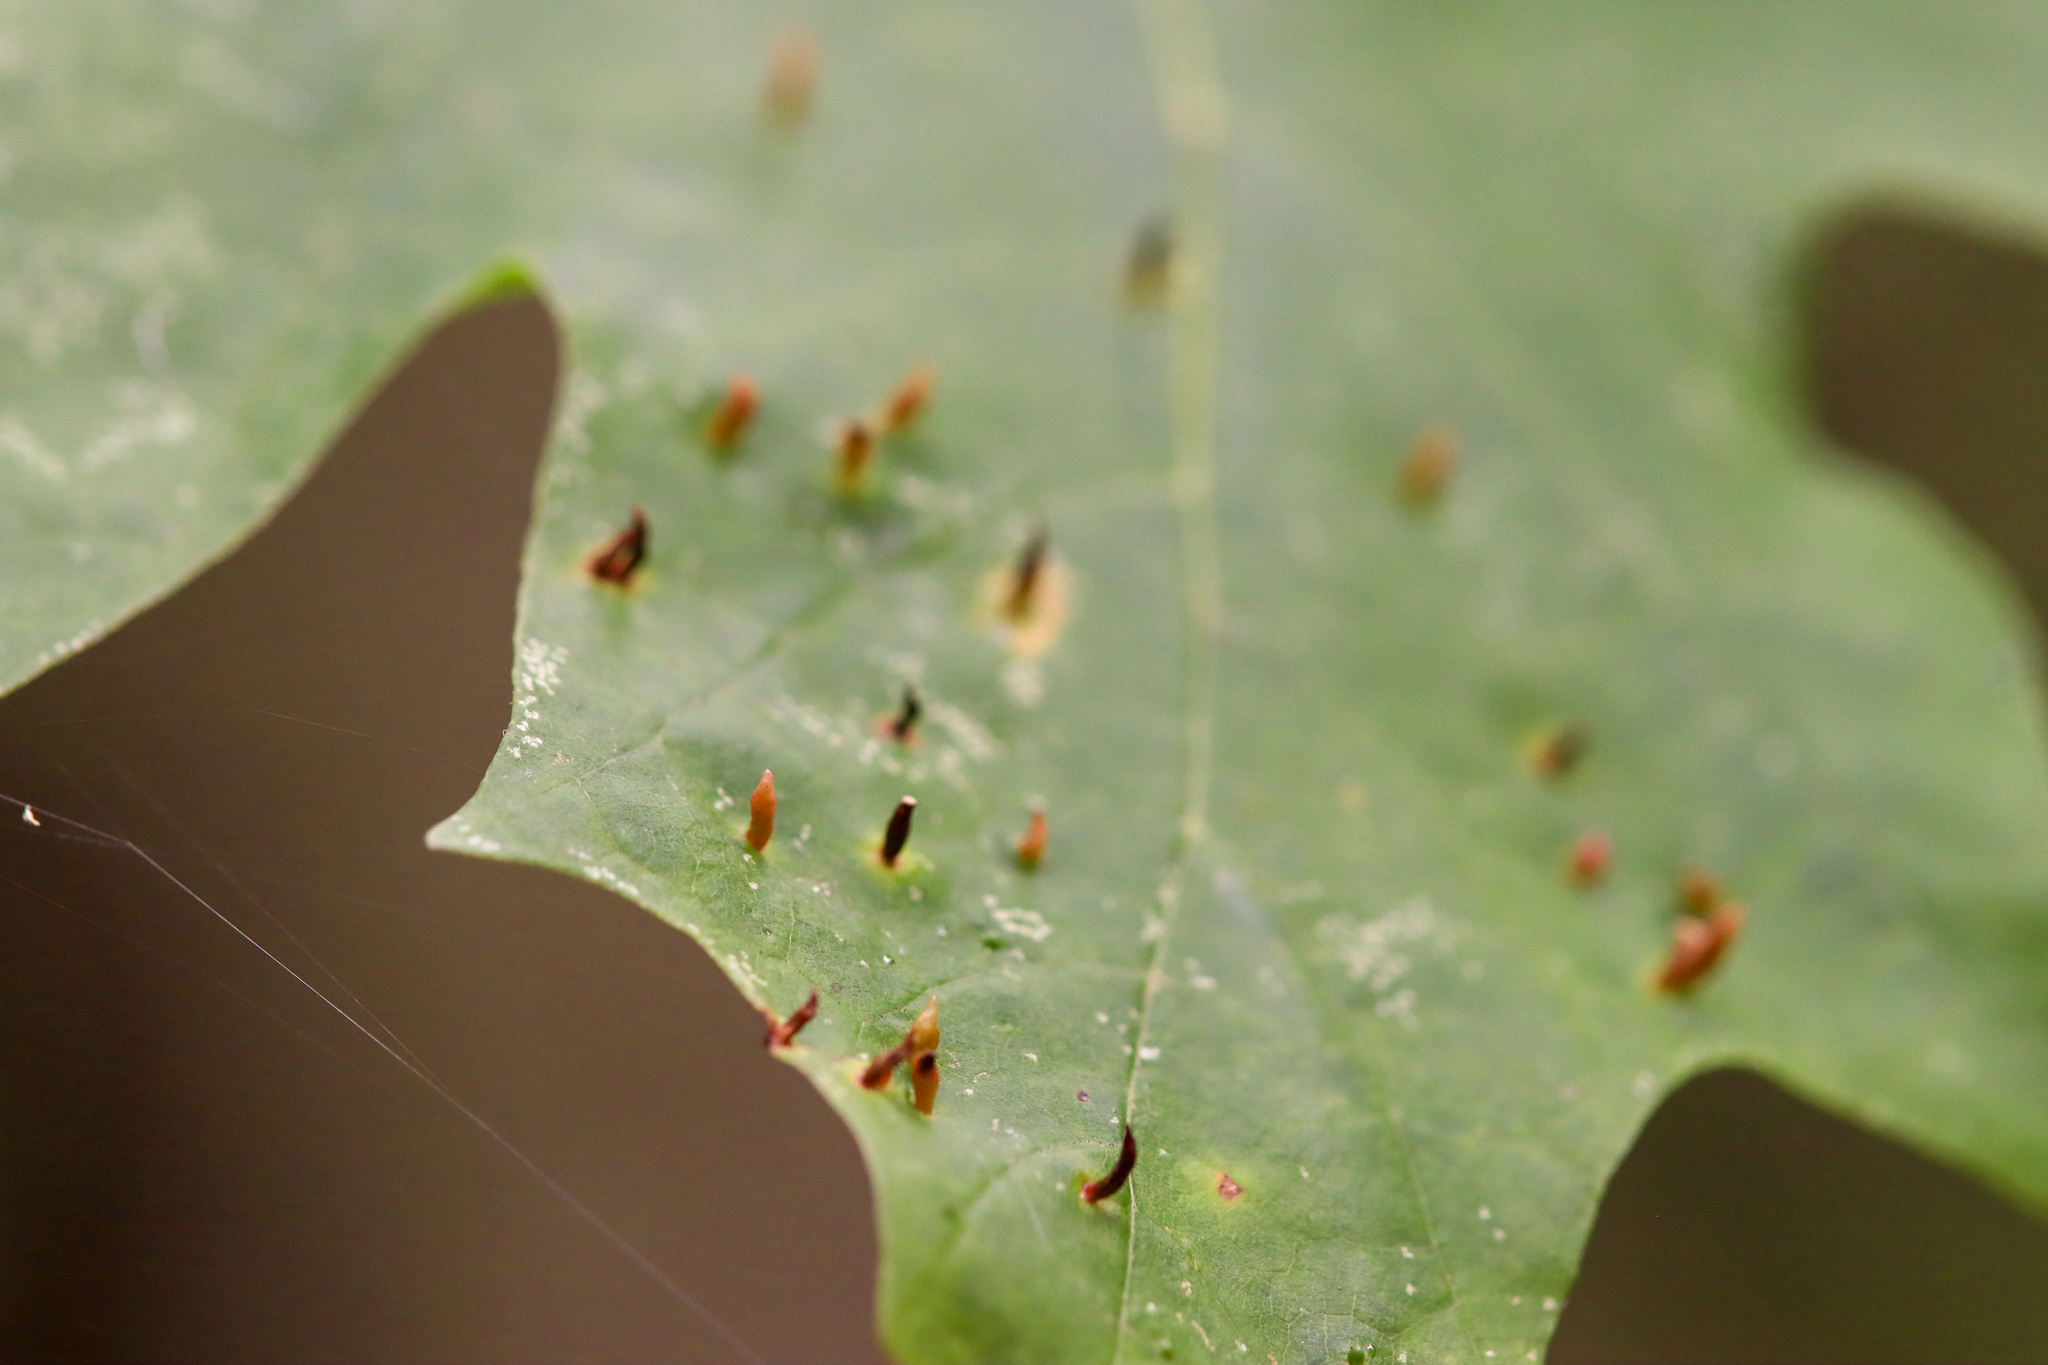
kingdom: Animalia
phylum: Arthropoda
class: Arachnida
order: Trombidiformes
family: Eriophyidae
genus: Vasates
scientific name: Vasates aceriscrumena
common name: Maple spindle gall mite
